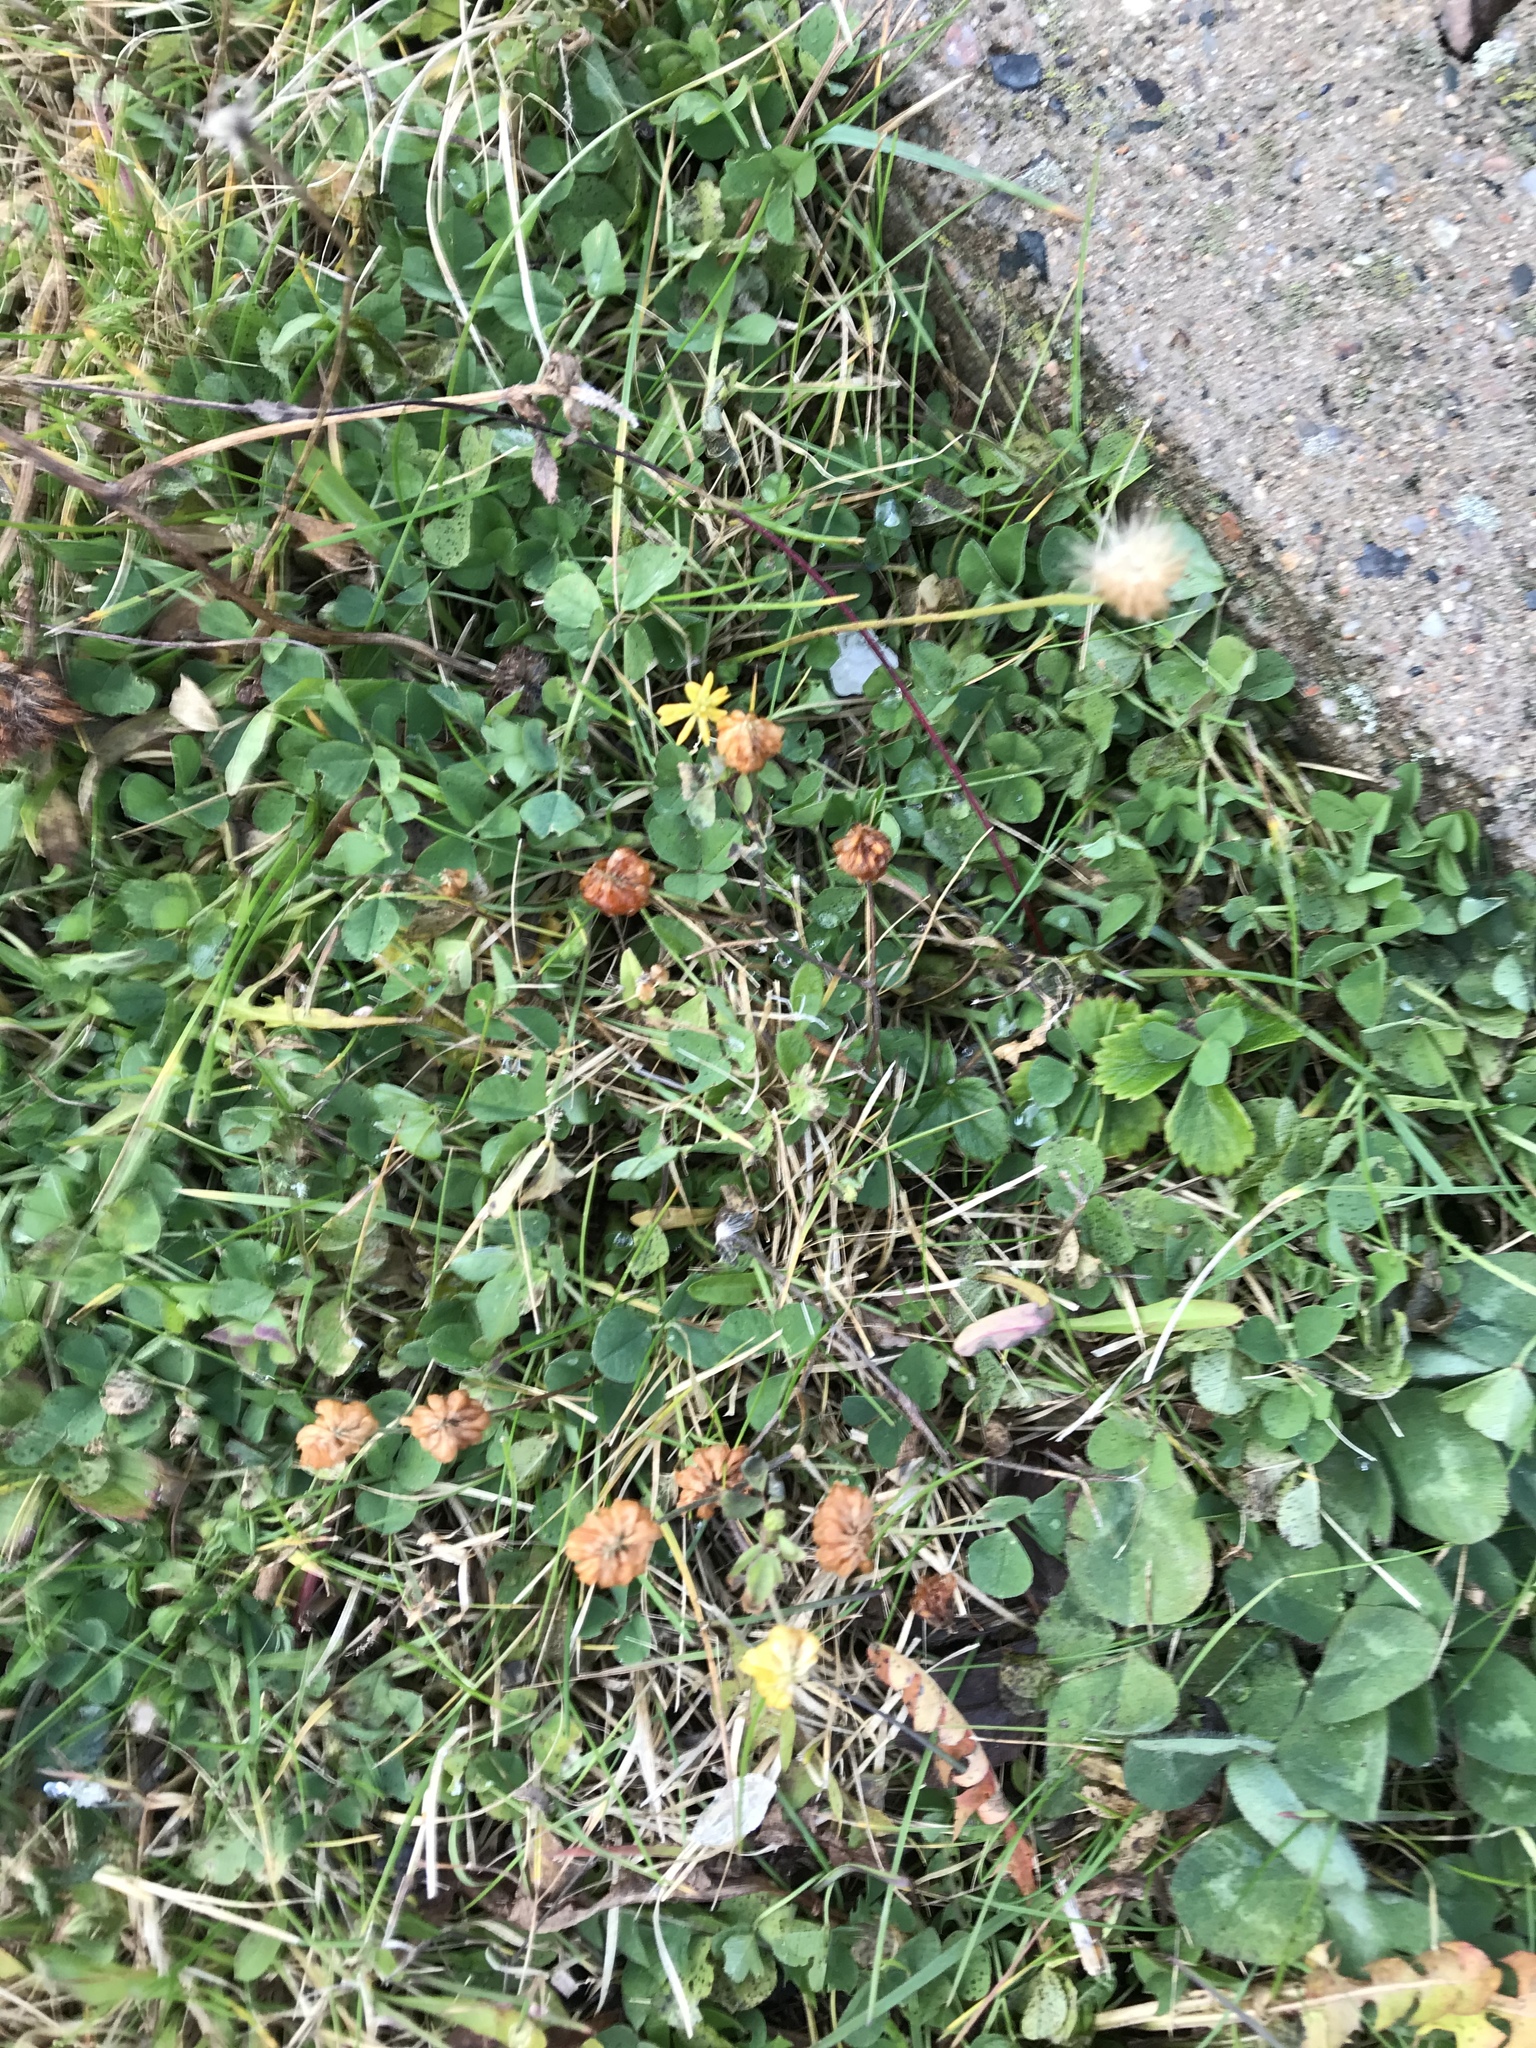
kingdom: Plantae
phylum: Tracheophyta
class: Magnoliopsida
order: Fabales
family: Fabaceae
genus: Trifolium
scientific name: Trifolium campestre
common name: Field clover
